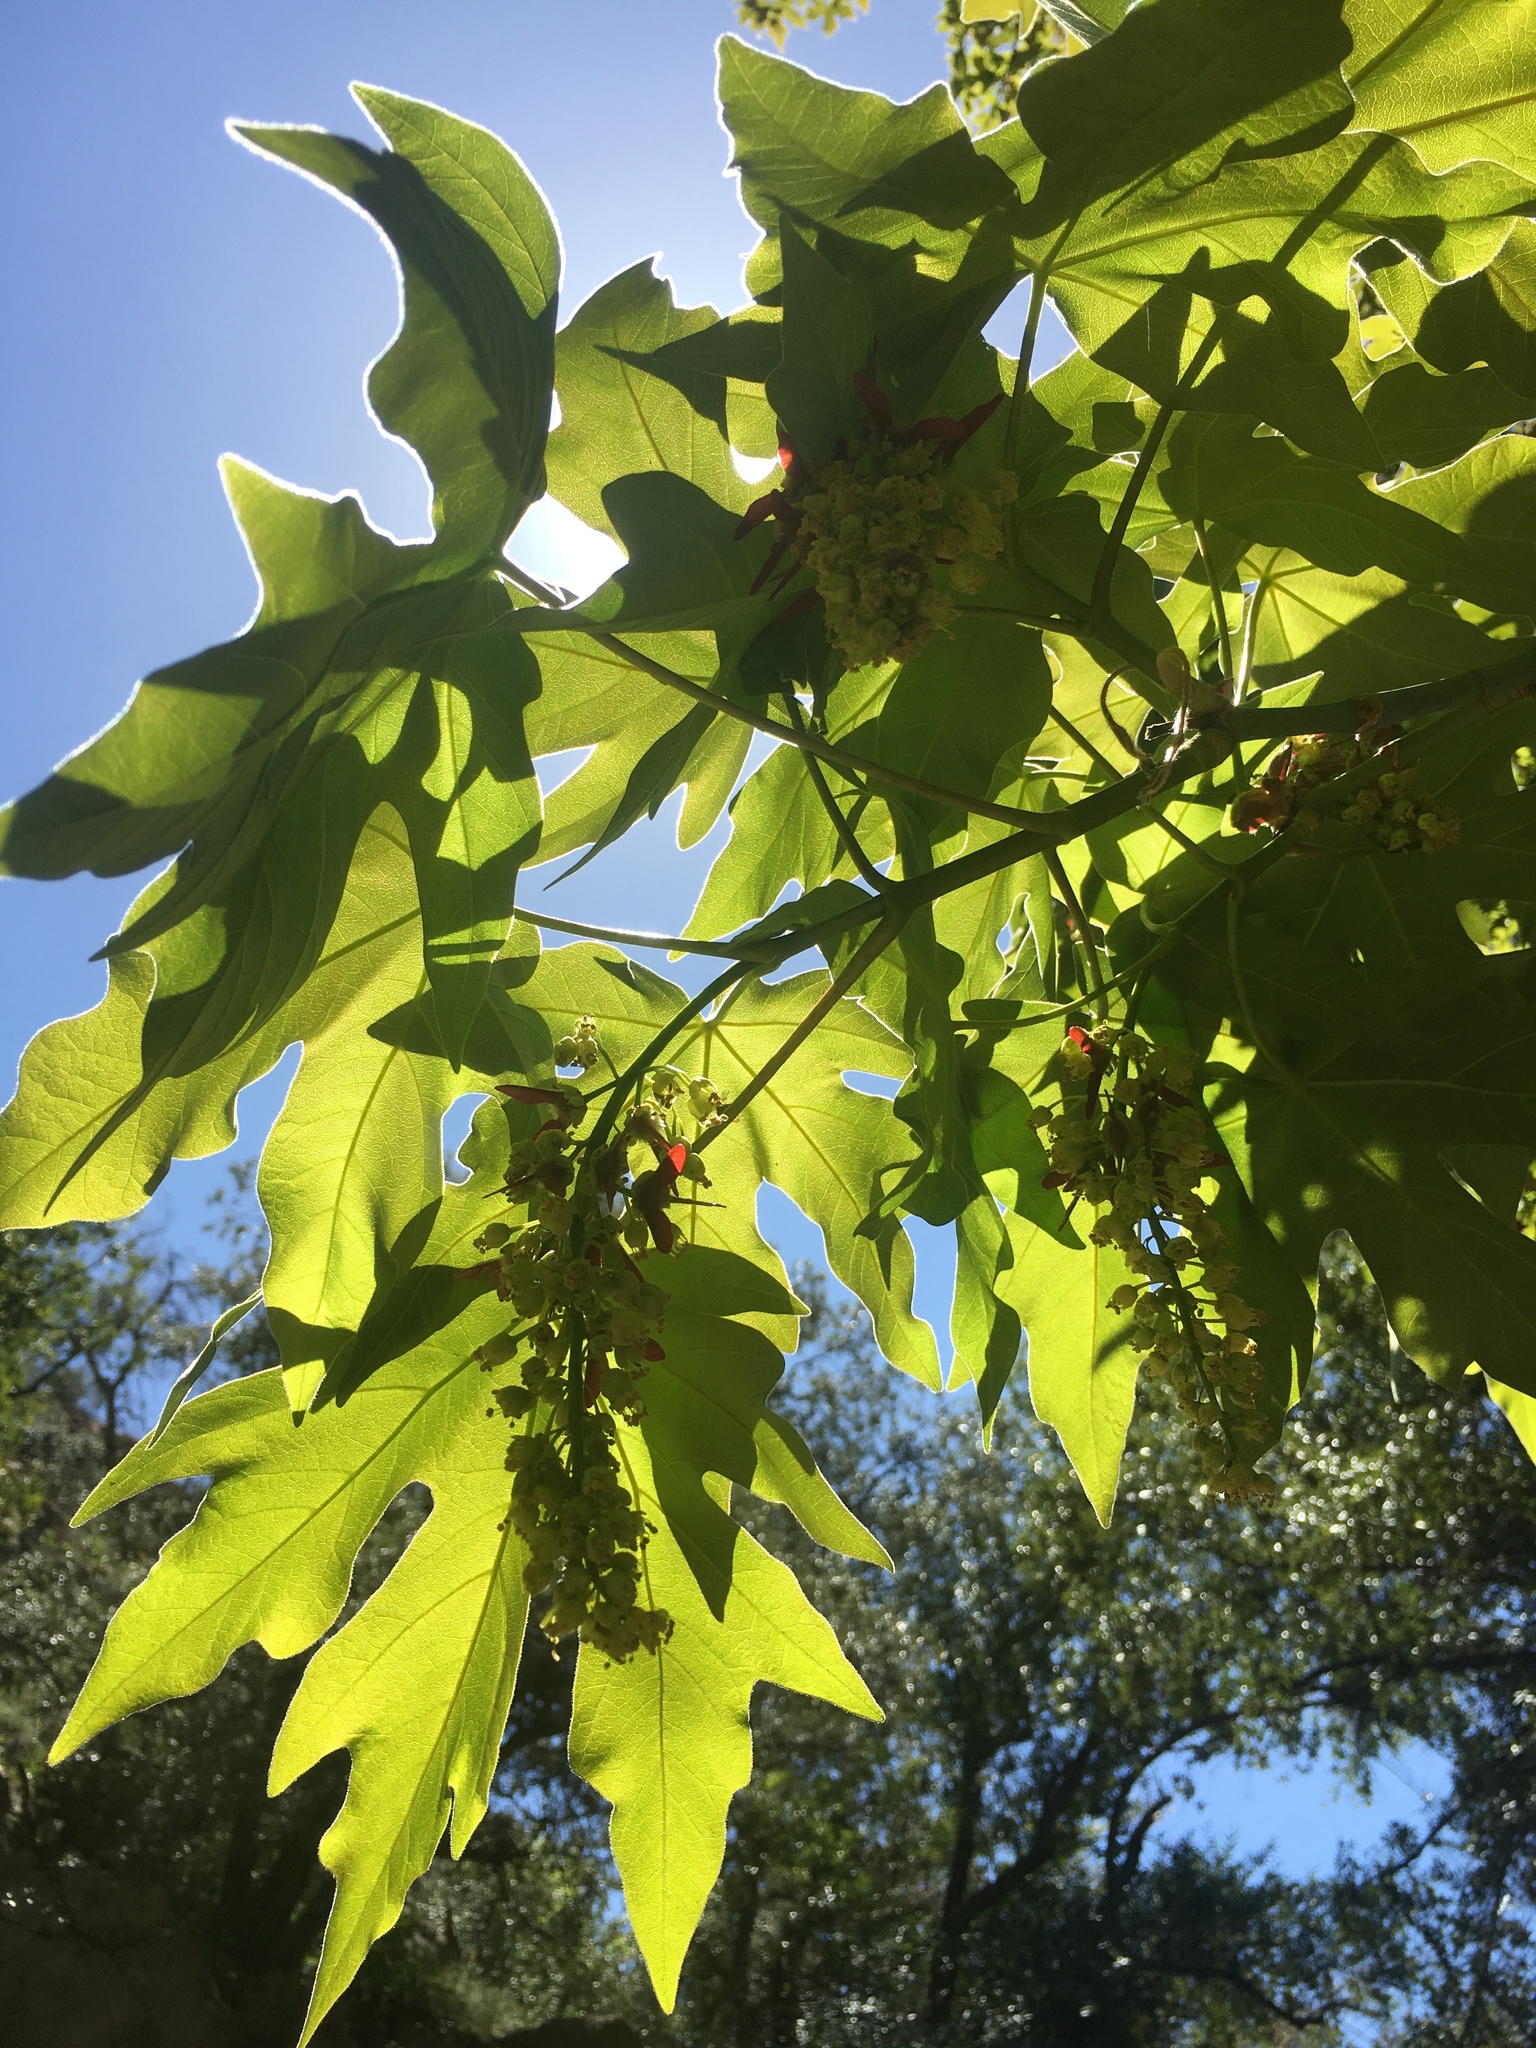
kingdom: Plantae
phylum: Tracheophyta
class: Magnoliopsida
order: Sapindales
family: Sapindaceae
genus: Acer
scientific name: Acer macrophyllum
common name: Oregon maple
